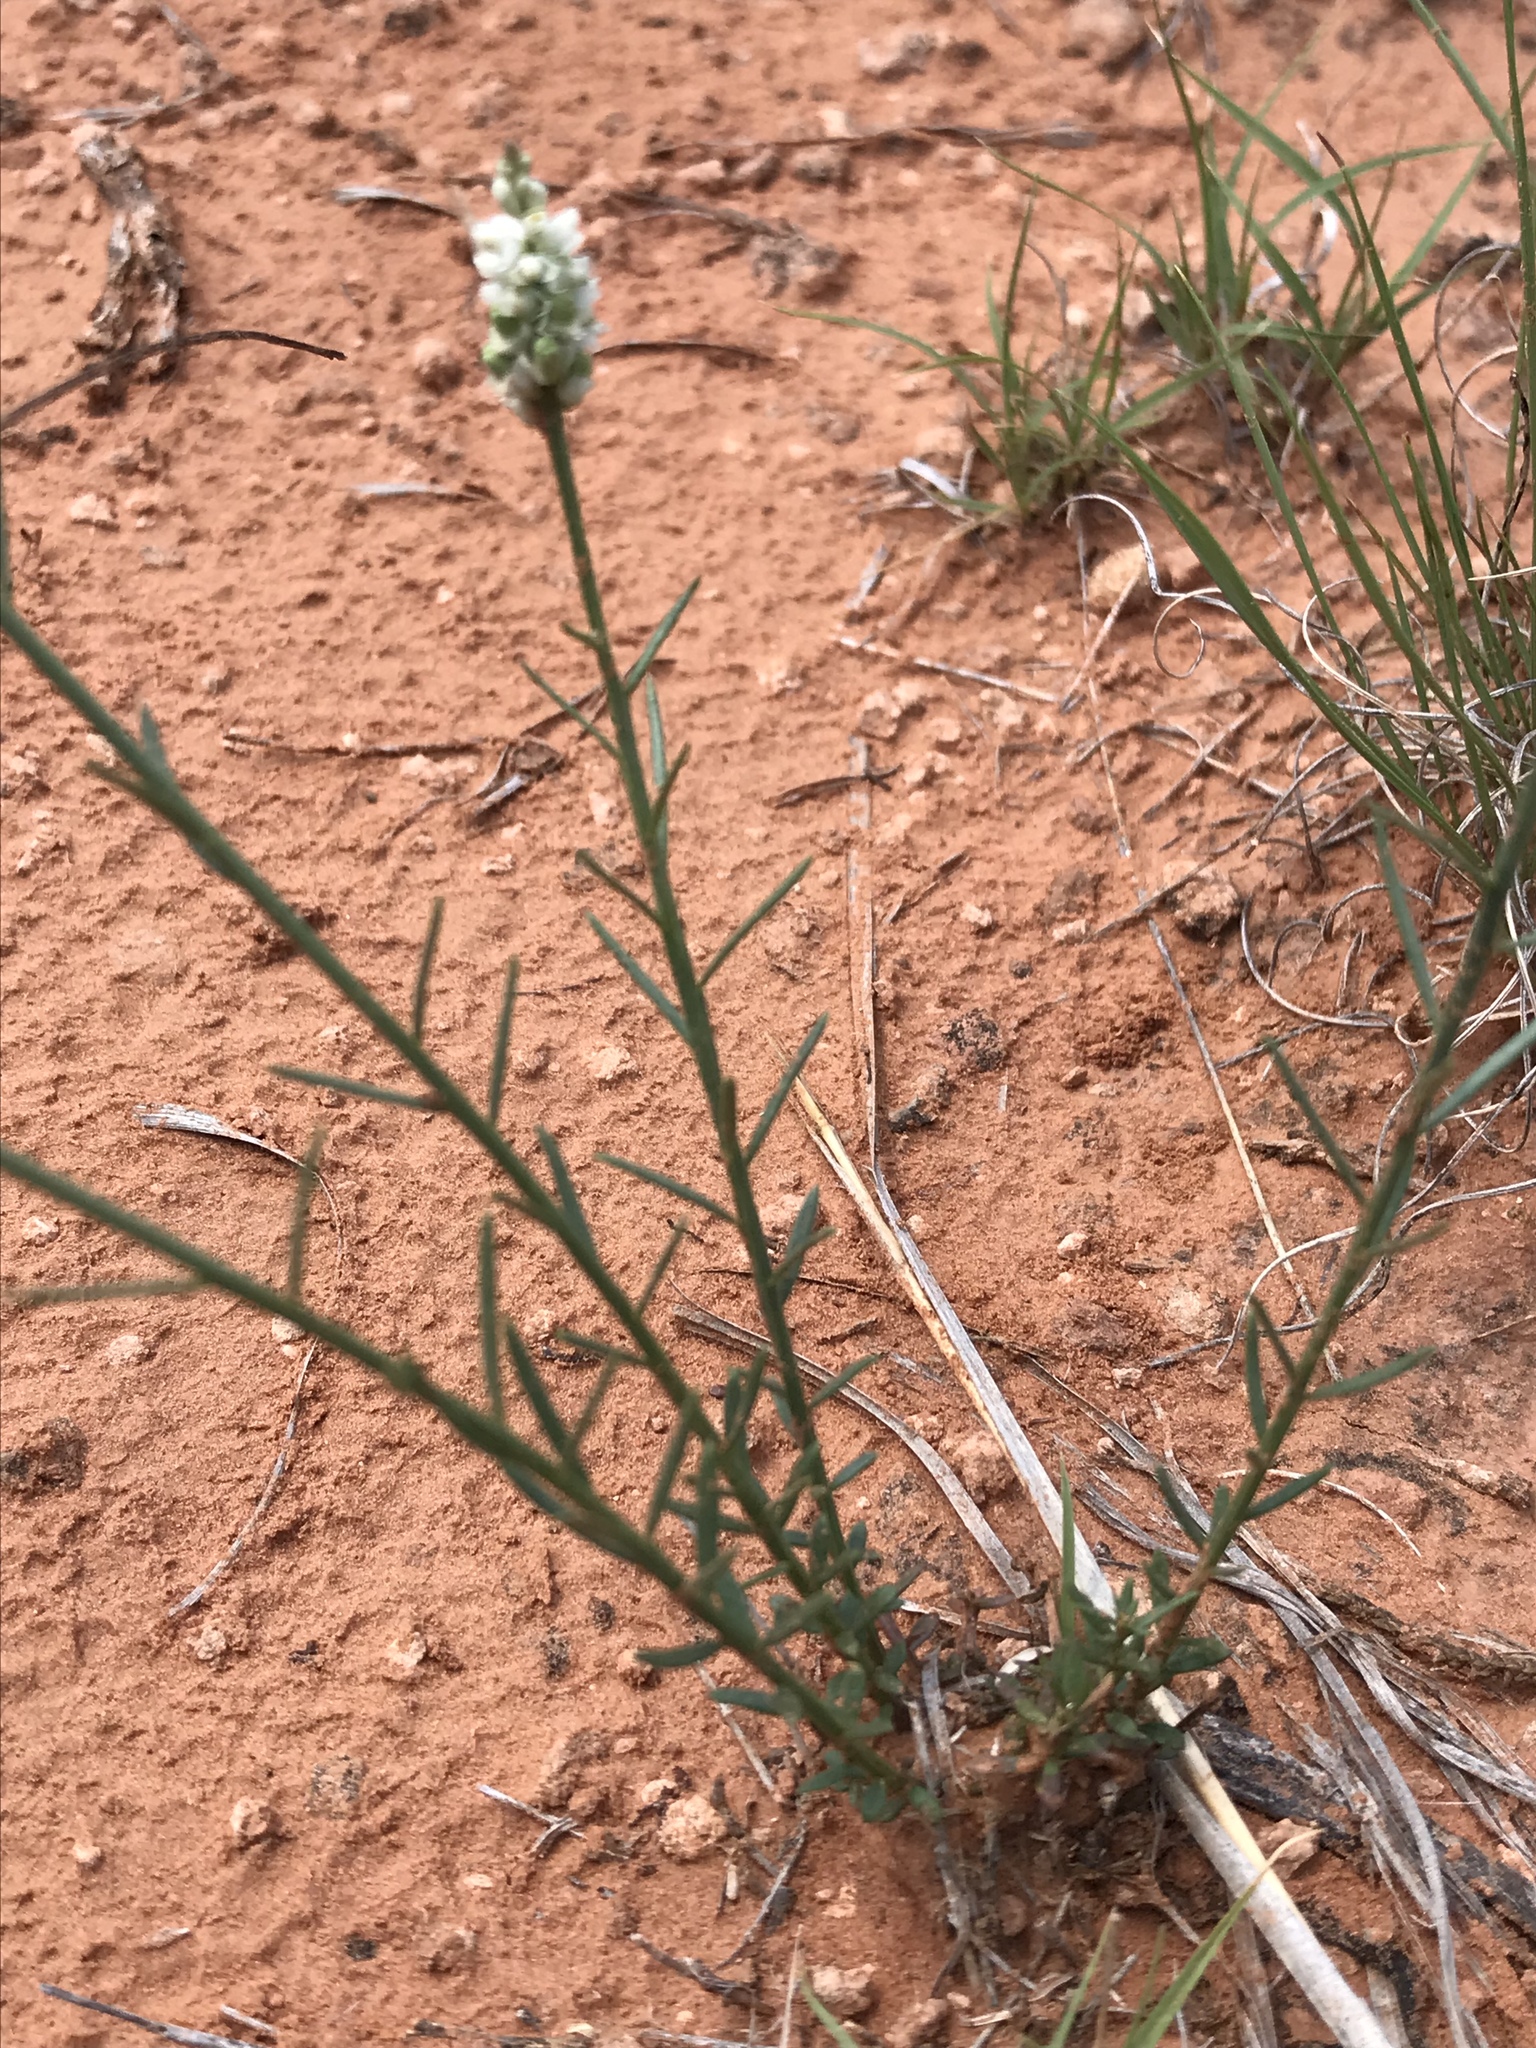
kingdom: Plantae
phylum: Tracheophyta
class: Magnoliopsida
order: Fabales
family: Polygalaceae
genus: Polygala
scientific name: Polygala alba
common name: White milkwort
